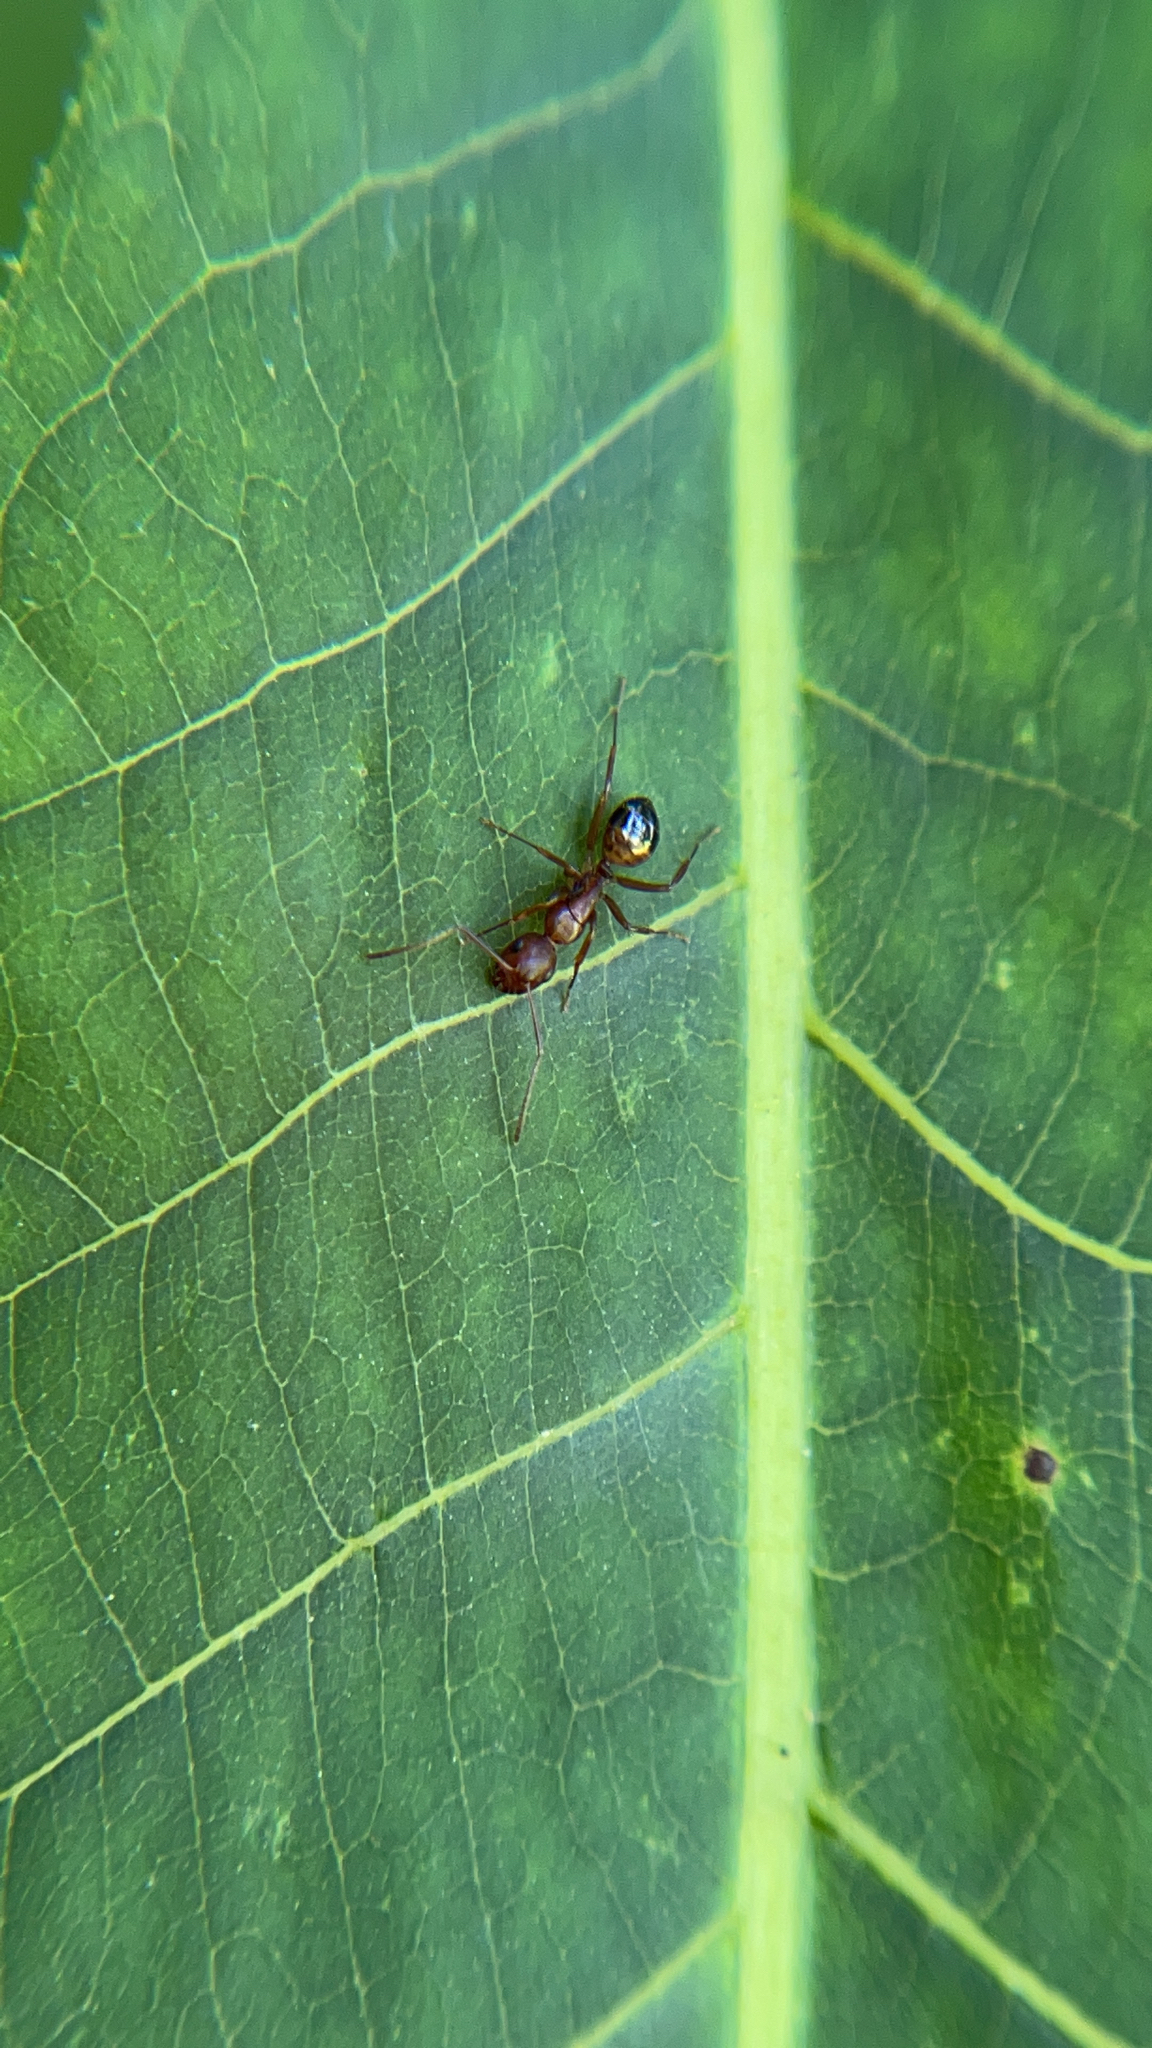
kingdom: Animalia
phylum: Arthropoda
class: Insecta
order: Hymenoptera
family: Formicidae
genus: Camponotus
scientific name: Camponotus subbarbatus
